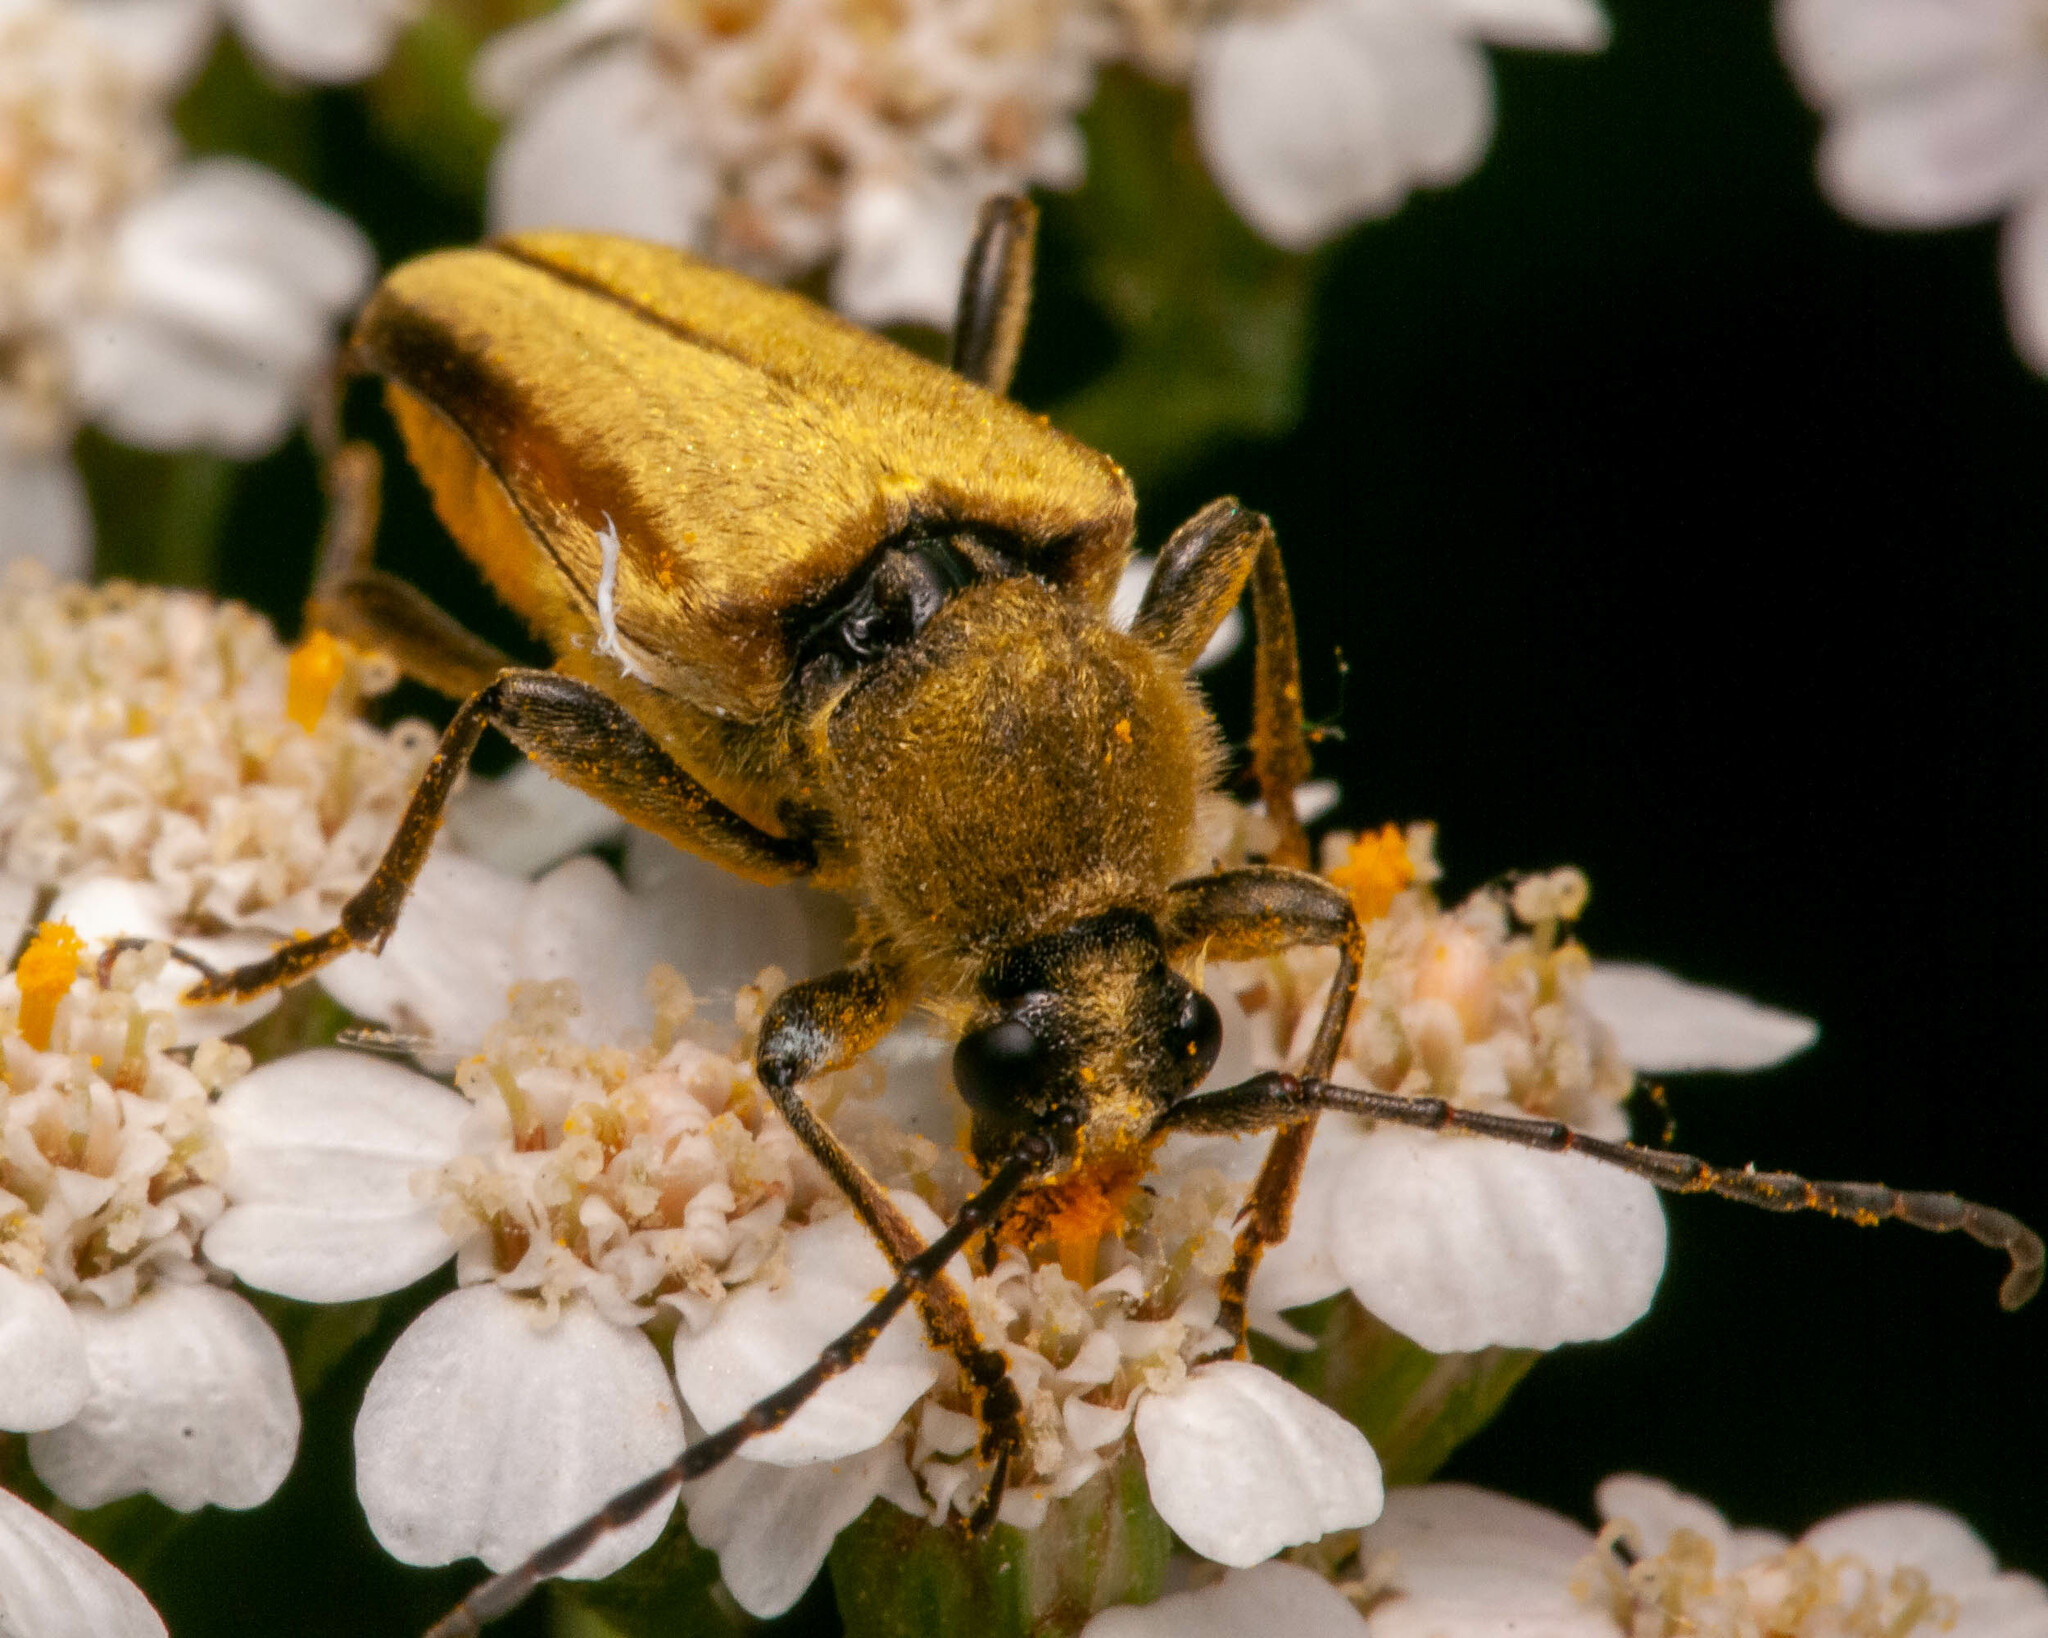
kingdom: Animalia
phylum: Arthropoda
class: Insecta
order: Coleoptera
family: Cerambycidae
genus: Cosmosalia
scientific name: Cosmosalia chrysocoma
